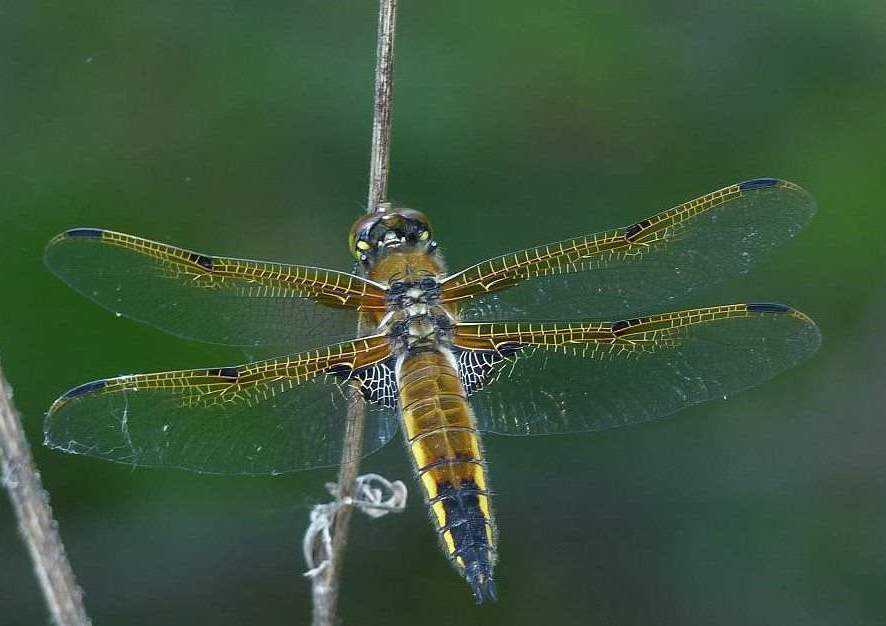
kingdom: Animalia
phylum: Arthropoda
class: Insecta
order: Odonata
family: Libellulidae
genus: Libellula
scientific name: Libellula quadrimaculata
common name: Four-spotted chaser
